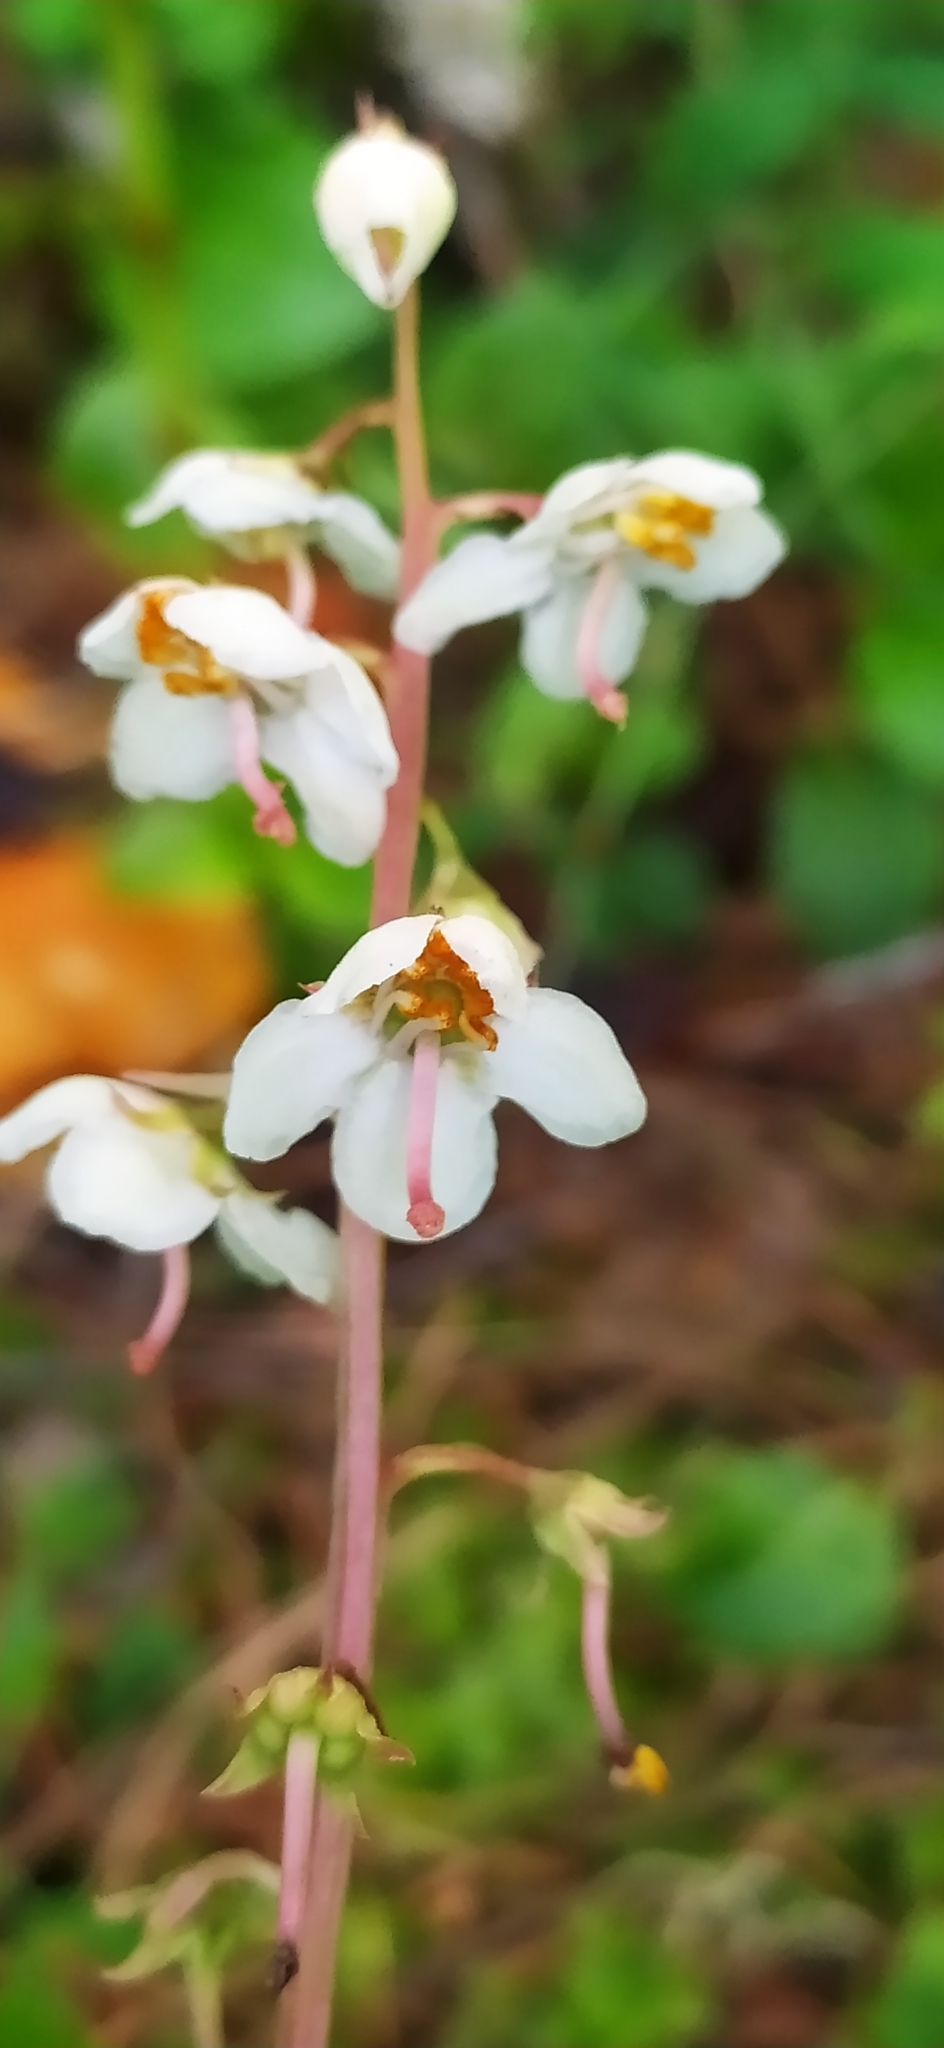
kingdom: Plantae
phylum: Tracheophyta
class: Magnoliopsida
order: Ericales
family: Ericaceae
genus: Pyrola
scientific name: Pyrola rotundifolia
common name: Round-leaved wintergreen
